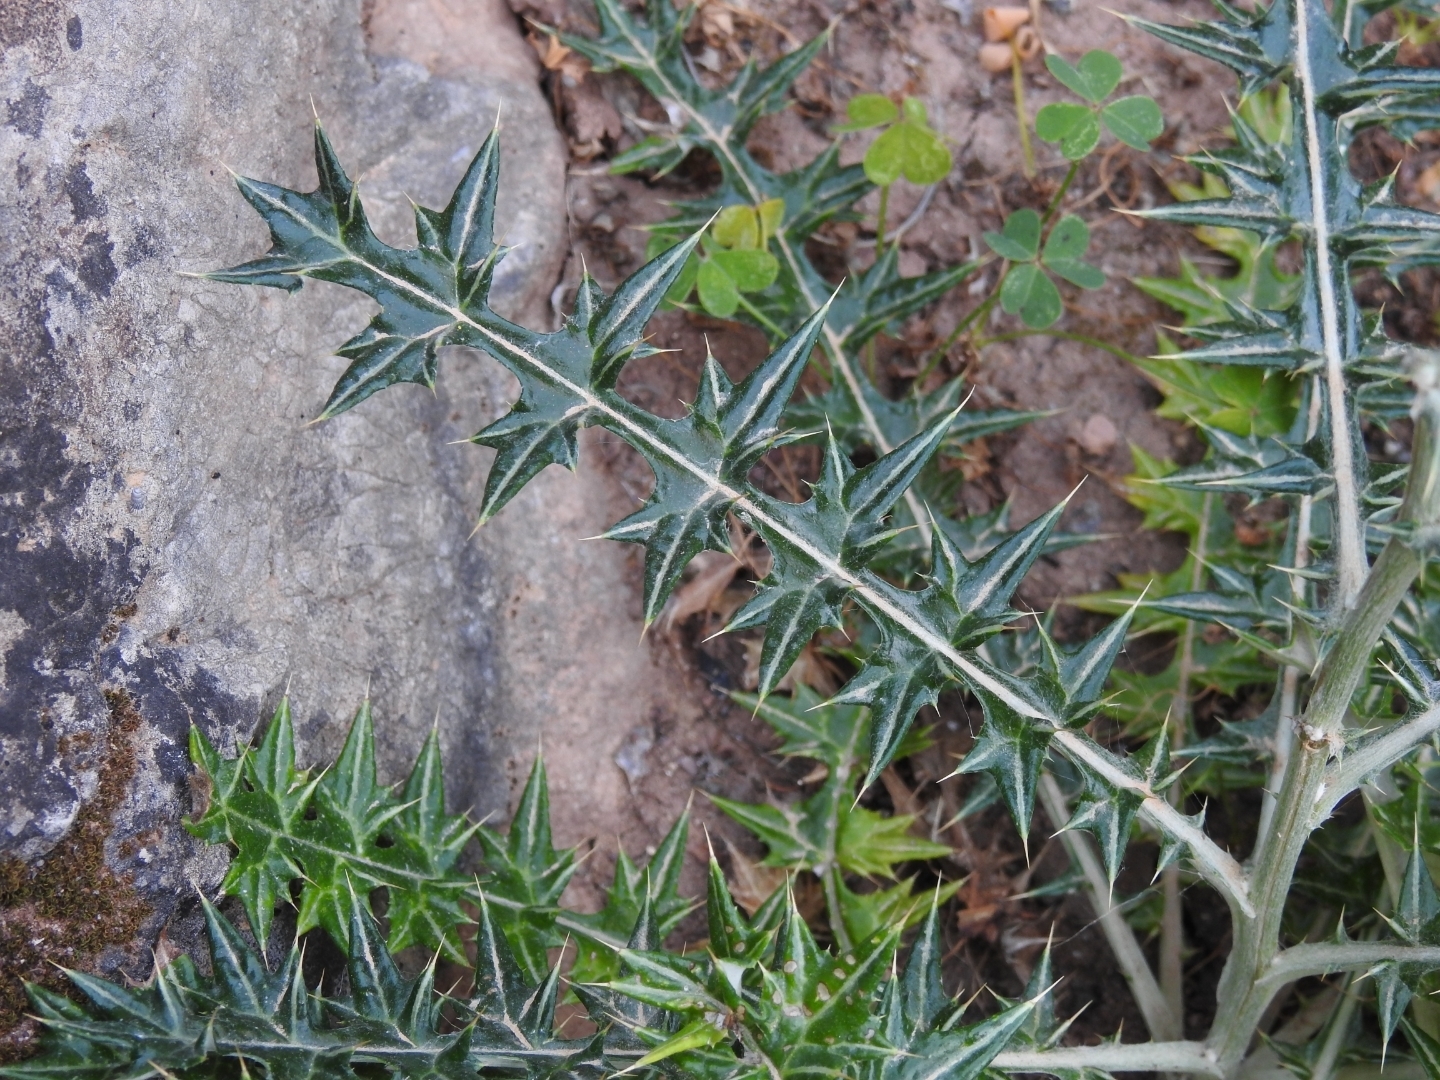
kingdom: Plantae
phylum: Tracheophyta
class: Magnoliopsida
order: Asterales
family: Asteraceae
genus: Lamyropsis
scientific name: Lamyropsis cynaroides
